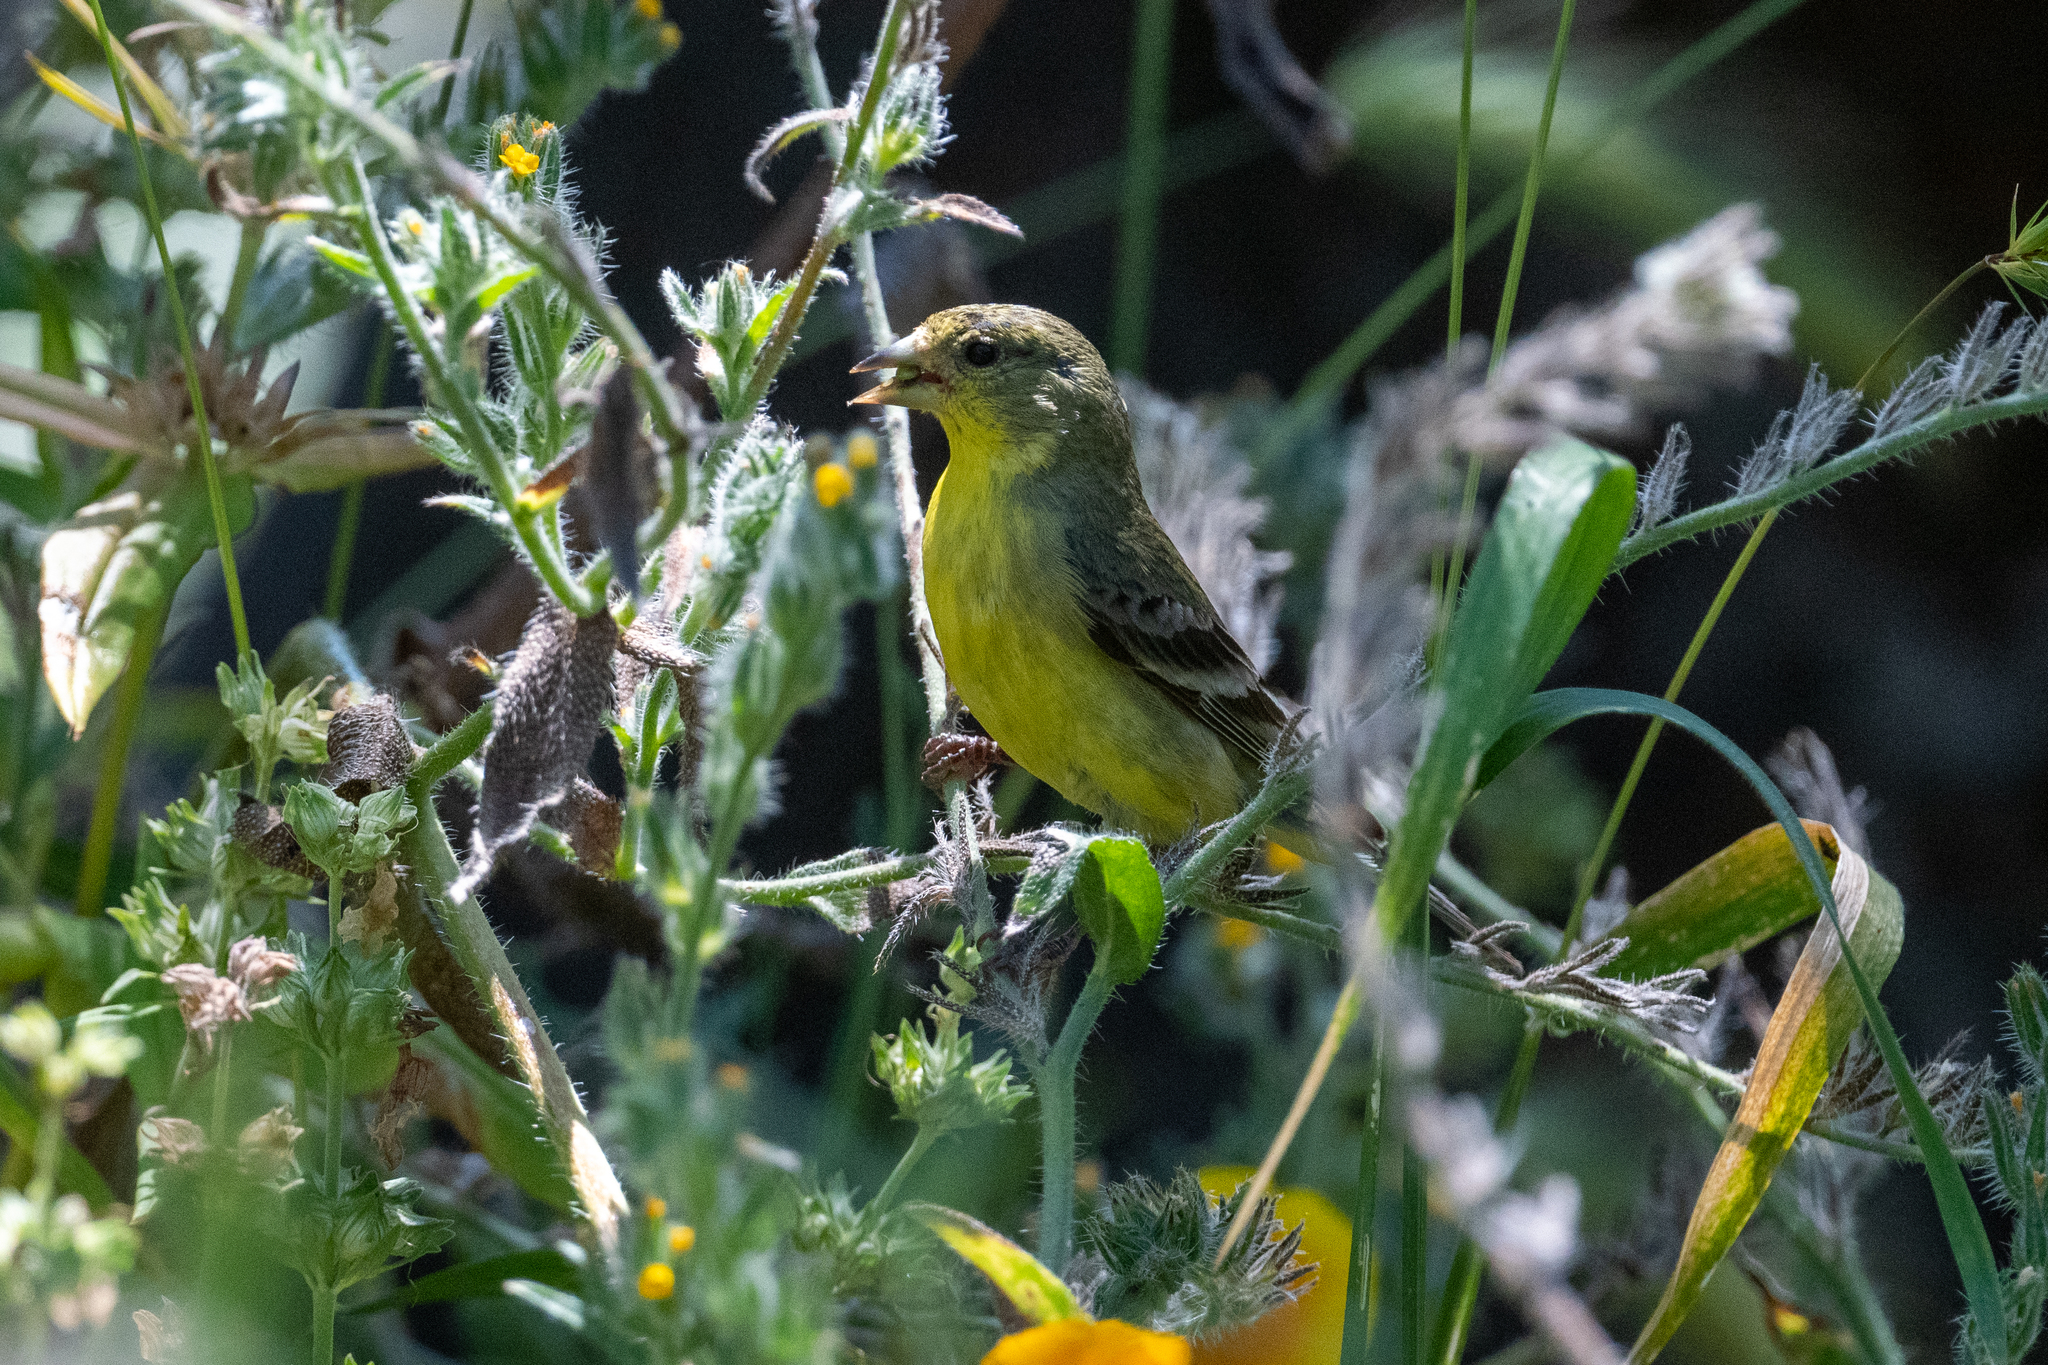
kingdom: Animalia
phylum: Chordata
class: Aves
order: Passeriformes
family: Fringillidae
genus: Spinus
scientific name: Spinus psaltria
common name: Lesser goldfinch
